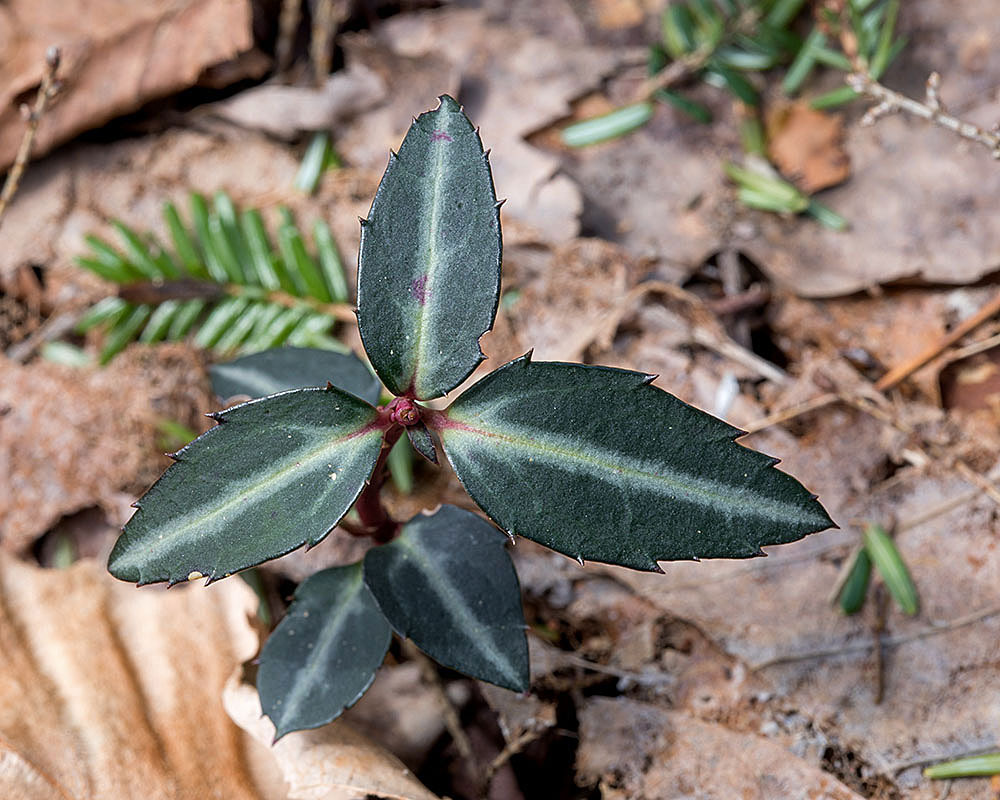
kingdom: Plantae
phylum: Tracheophyta
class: Magnoliopsida
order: Ericales
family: Ericaceae
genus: Chimaphila
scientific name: Chimaphila maculata
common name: Spotted pipsissewa
